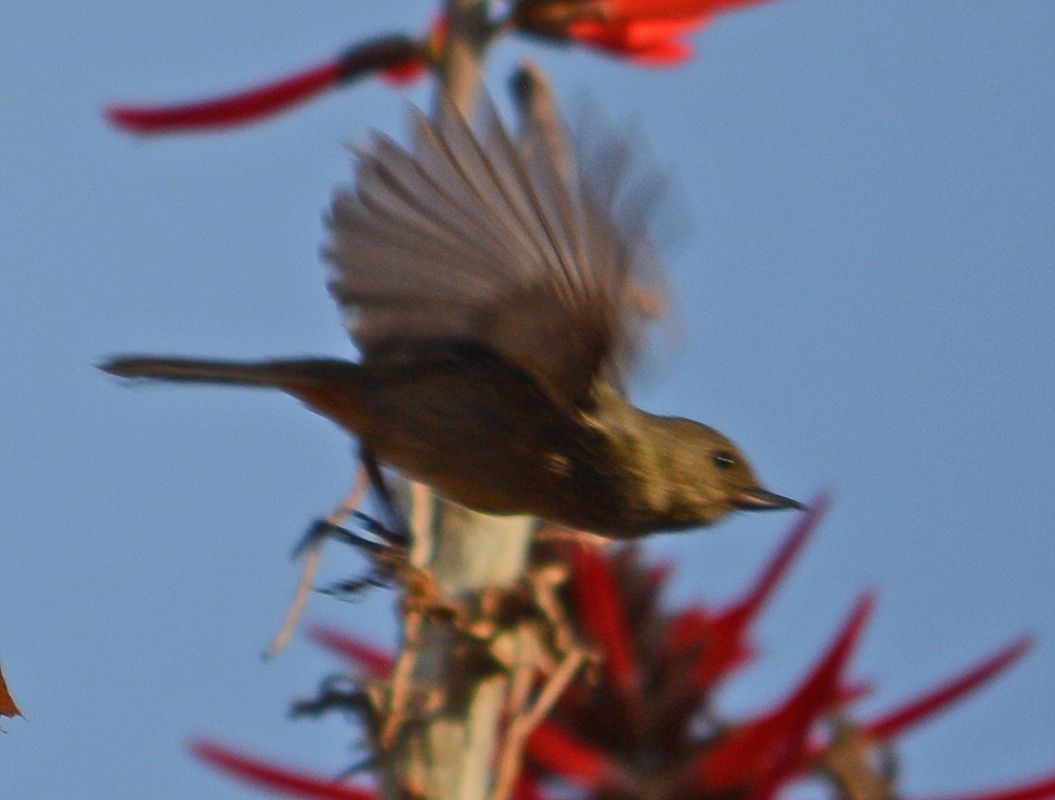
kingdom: Animalia
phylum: Chordata
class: Aves
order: Passeriformes
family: Thraupidae
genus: Diglossa
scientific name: Diglossa baritula
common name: Cinnamon-bellied flowerpiercer
